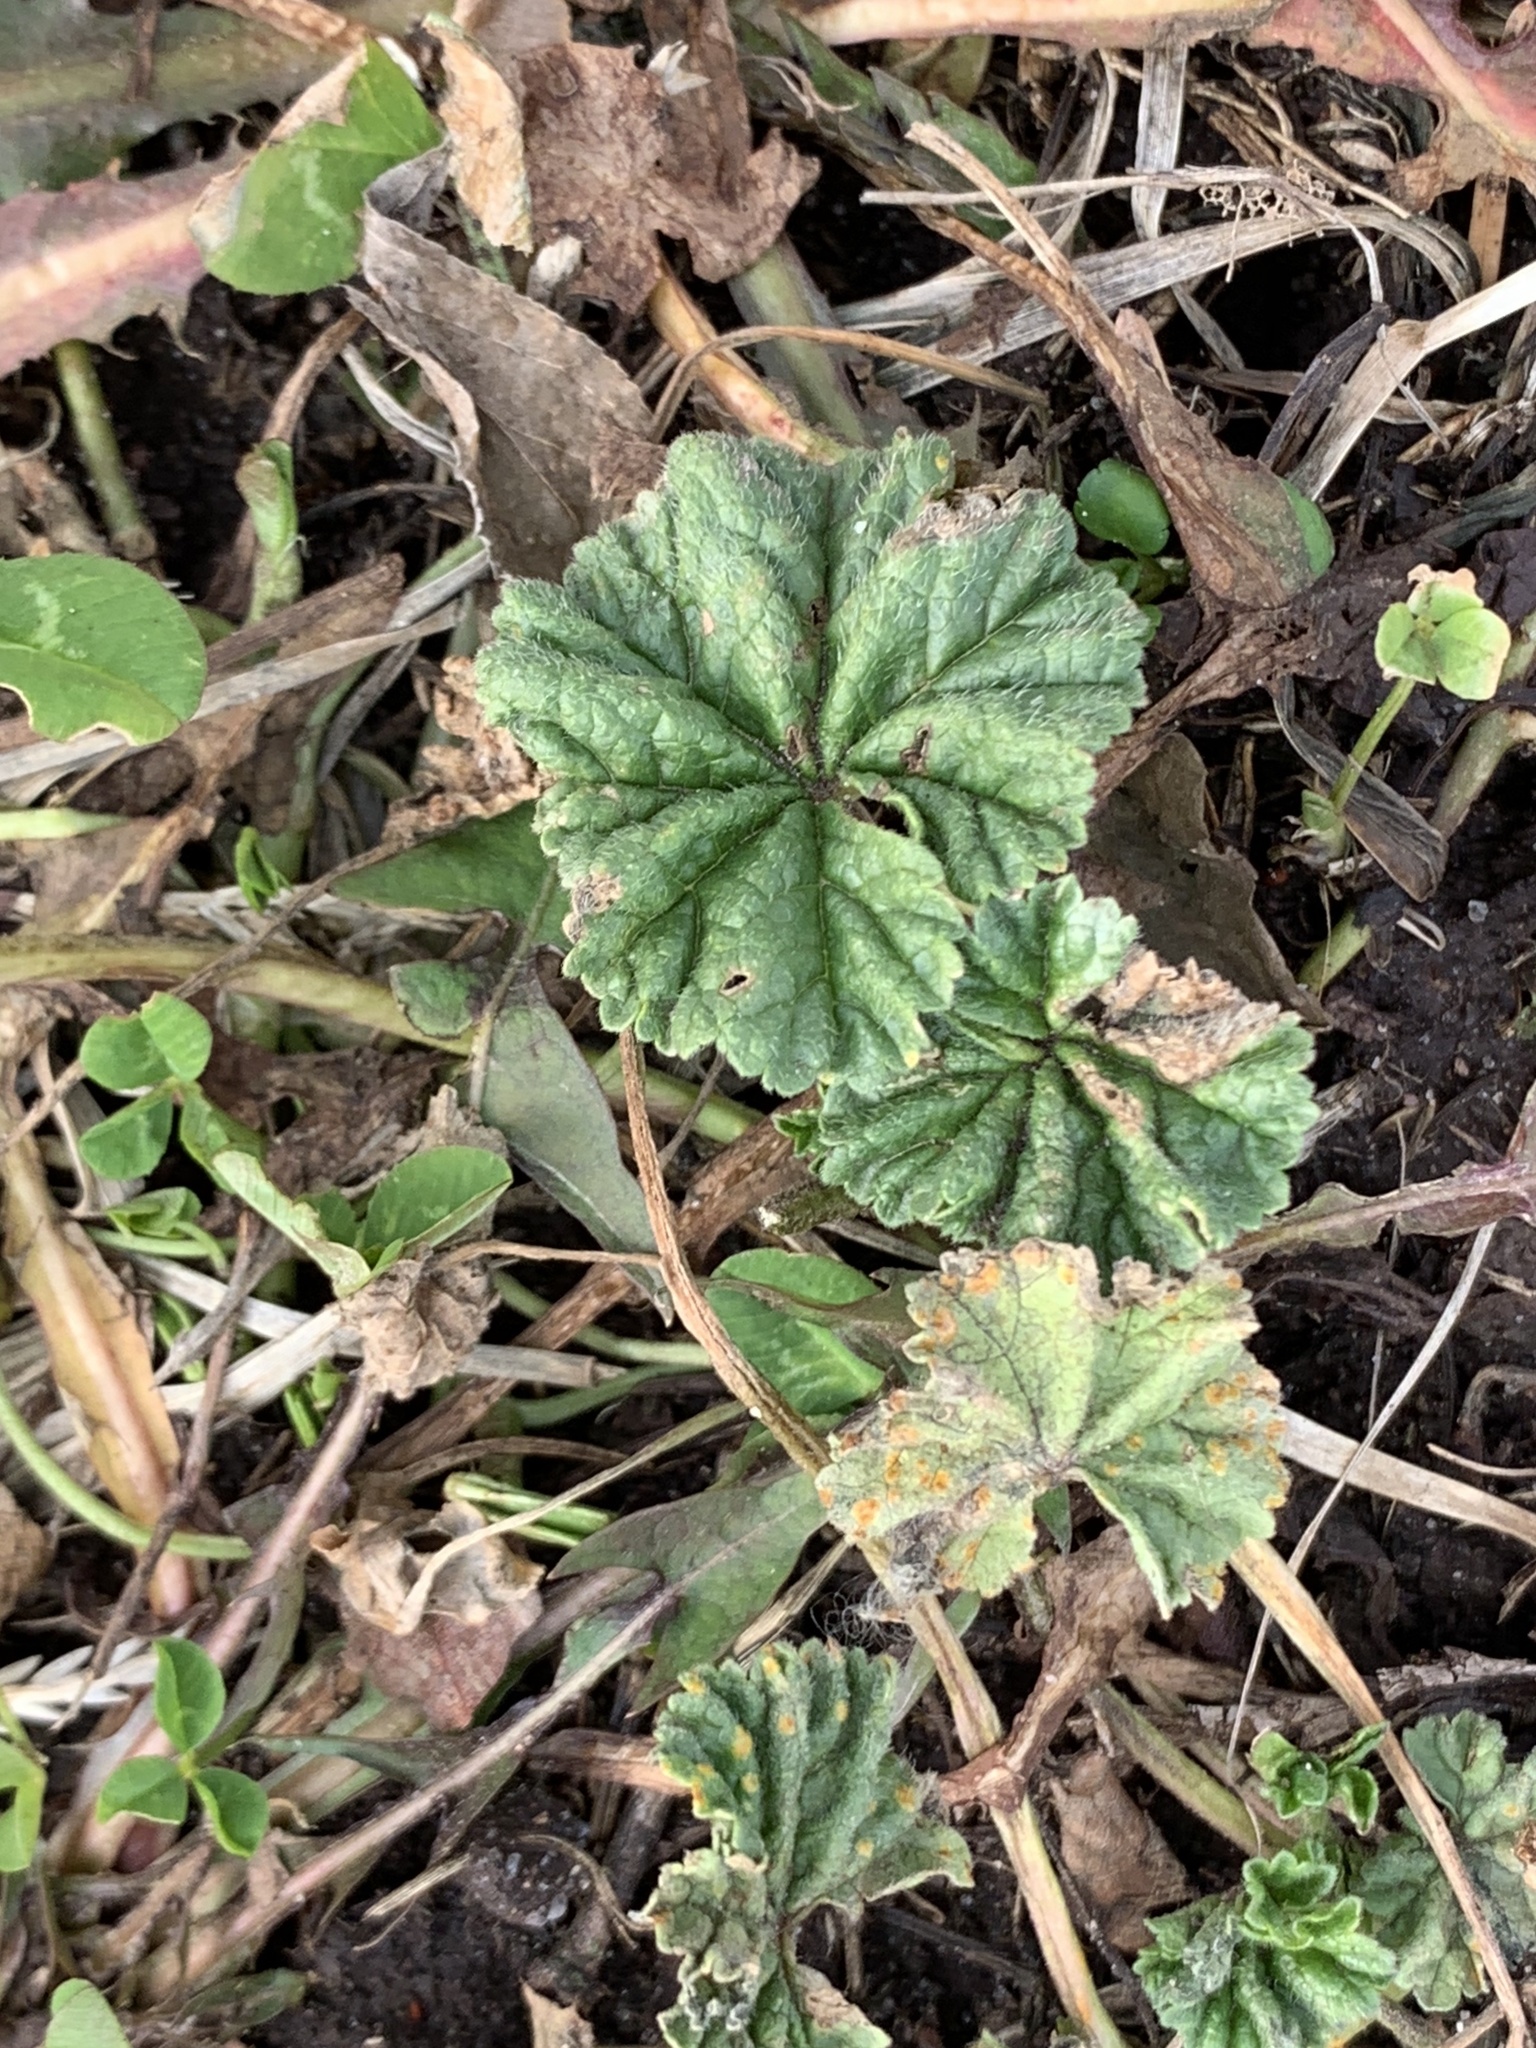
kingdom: Plantae
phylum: Tracheophyta
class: Magnoliopsida
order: Malvales
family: Malvaceae
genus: Malva
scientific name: Malva neglecta
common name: Common mallow
